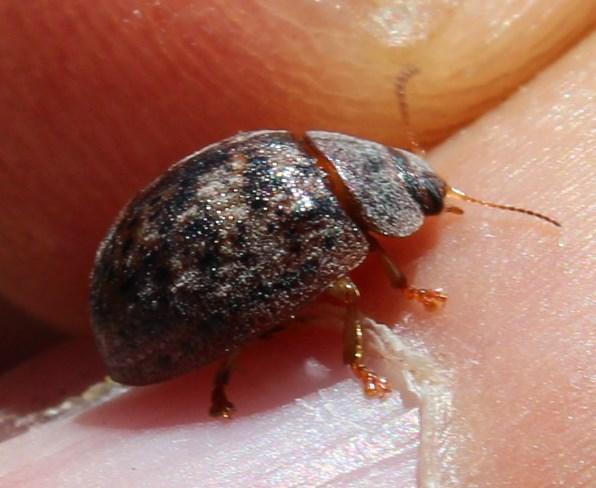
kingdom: Animalia
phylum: Arthropoda
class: Insecta
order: Coleoptera
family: Chrysomelidae
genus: Trachymela
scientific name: Trachymela
